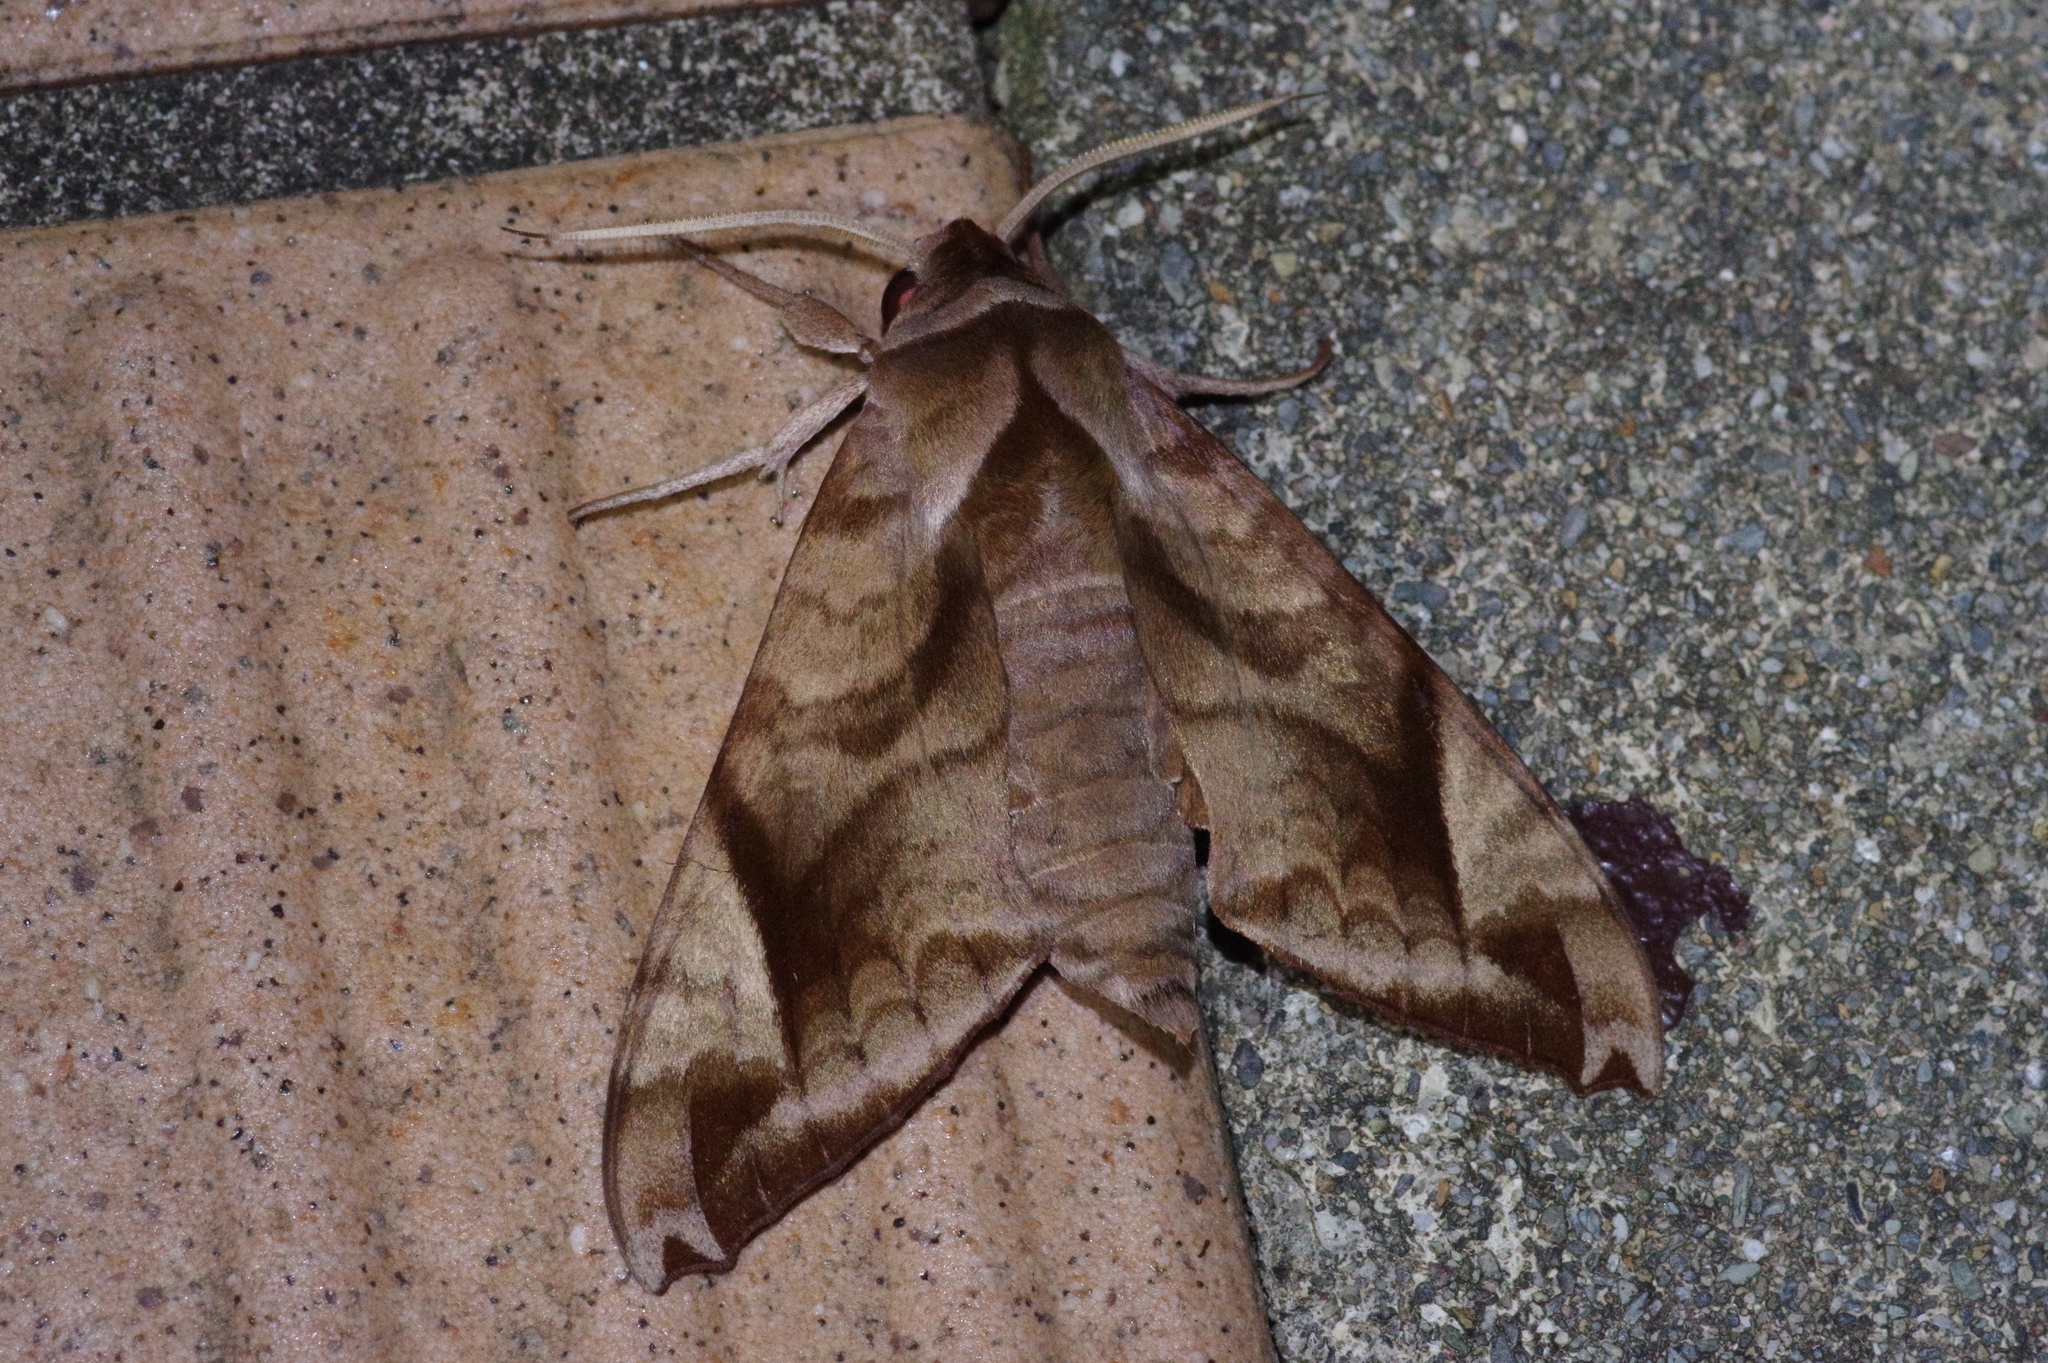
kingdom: Animalia
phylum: Arthropoda
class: Insecta
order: Lepidoptera
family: Sphingidae
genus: Acosmeryx
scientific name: Acosmeryx naga
